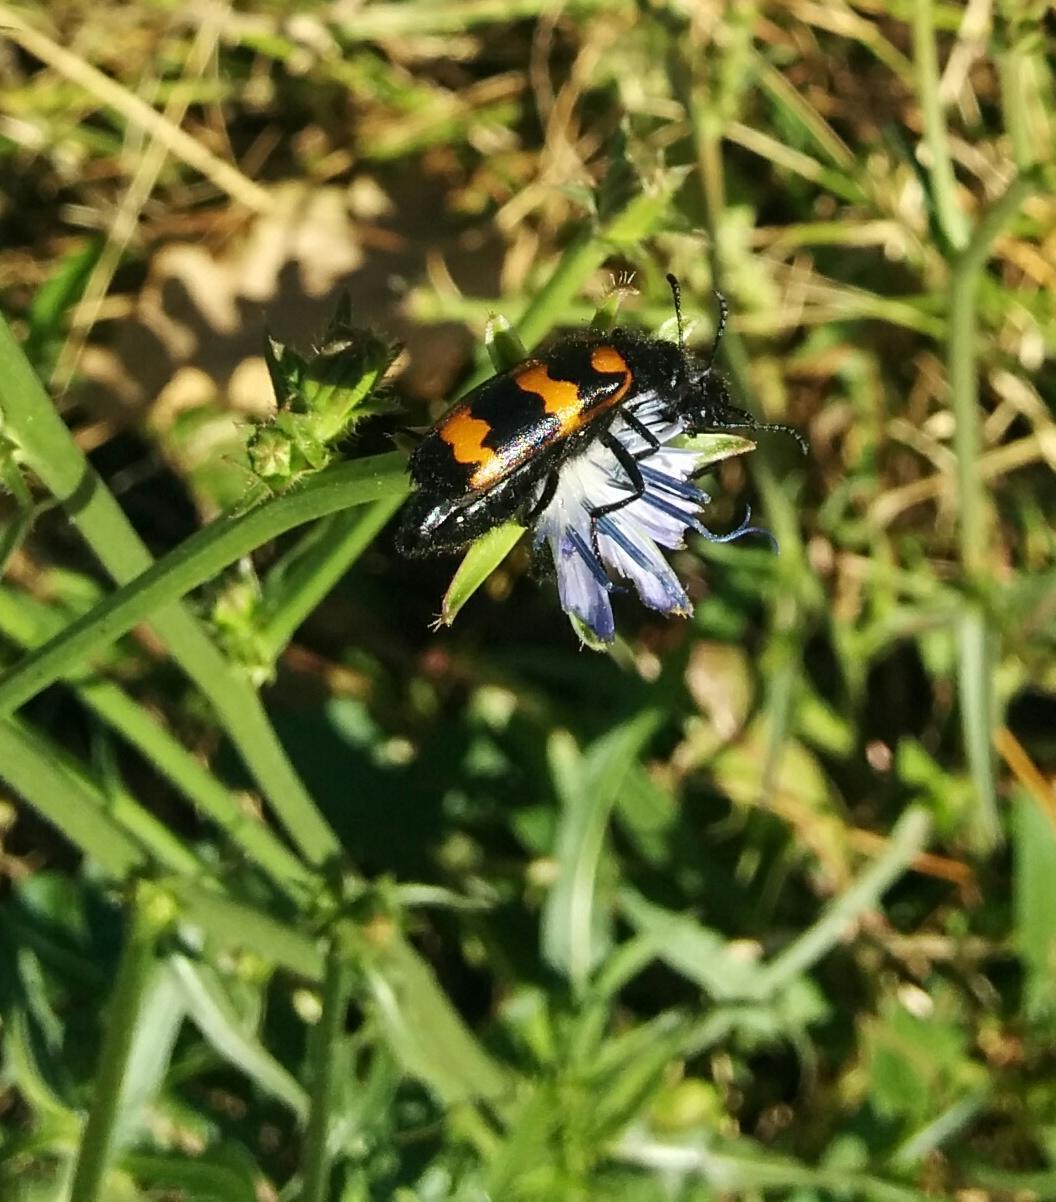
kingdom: Animalia
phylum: Arthropoda
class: Insecta
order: Coleoptera
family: Meloidae
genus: Mylabris
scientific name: Mylabris variabilis
